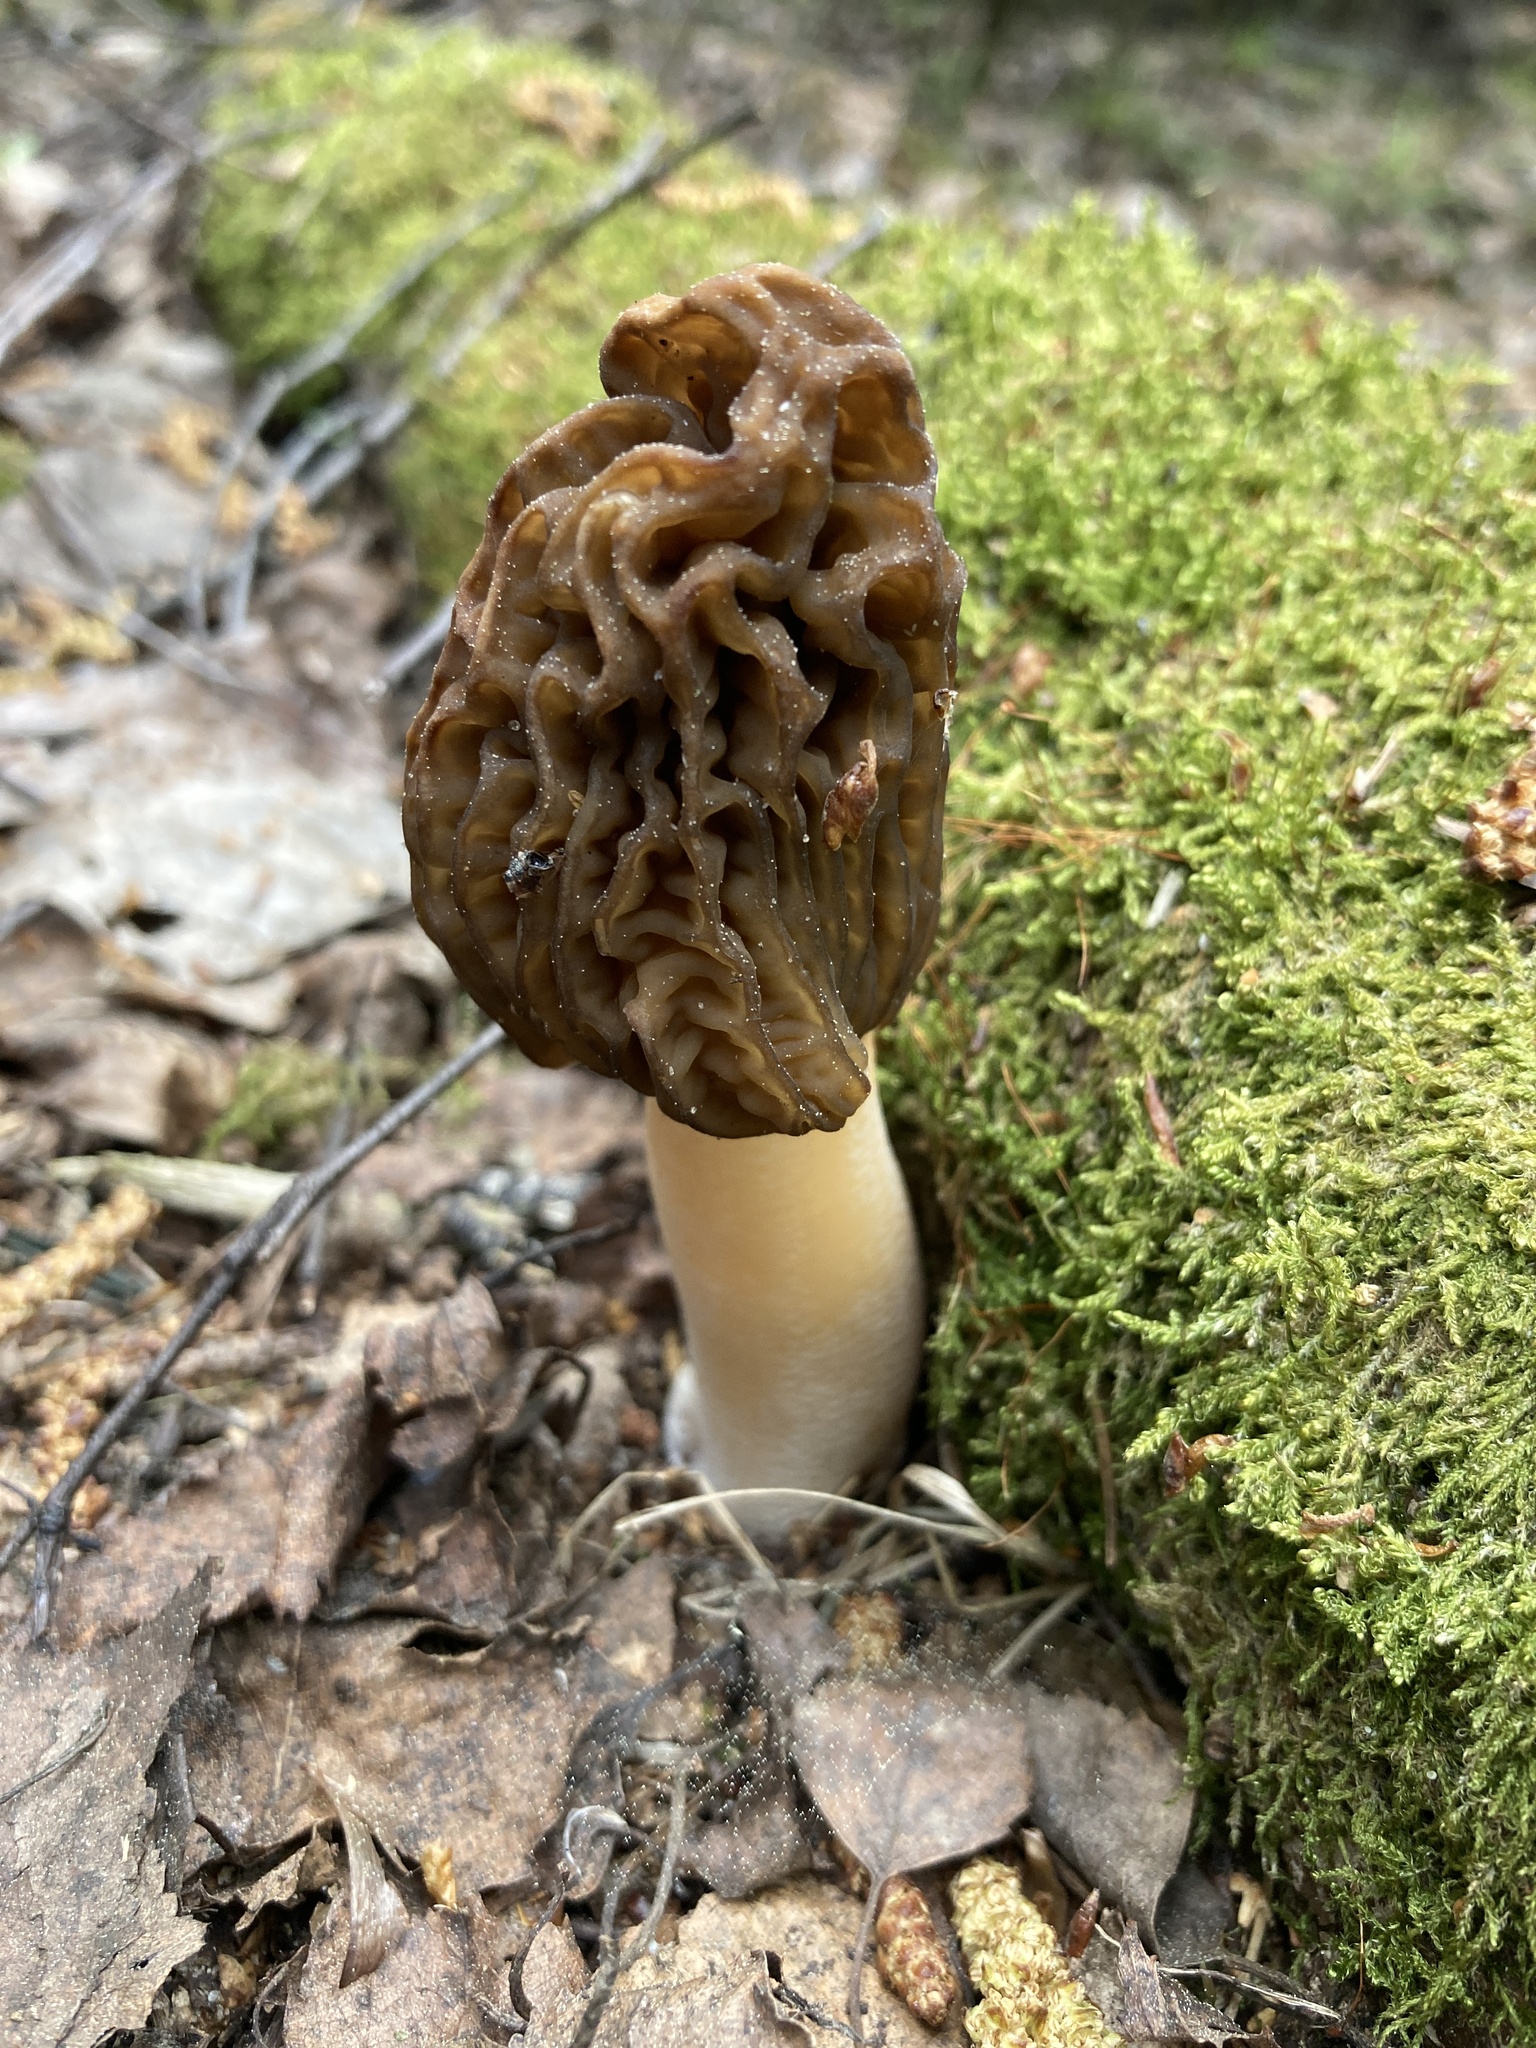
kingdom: Fungi
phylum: Ascomycota
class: Pezizomycetes
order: Pezizales
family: Morchellaceae
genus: Verpa
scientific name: Verpa bohemica
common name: Wrinkled thimble morel
